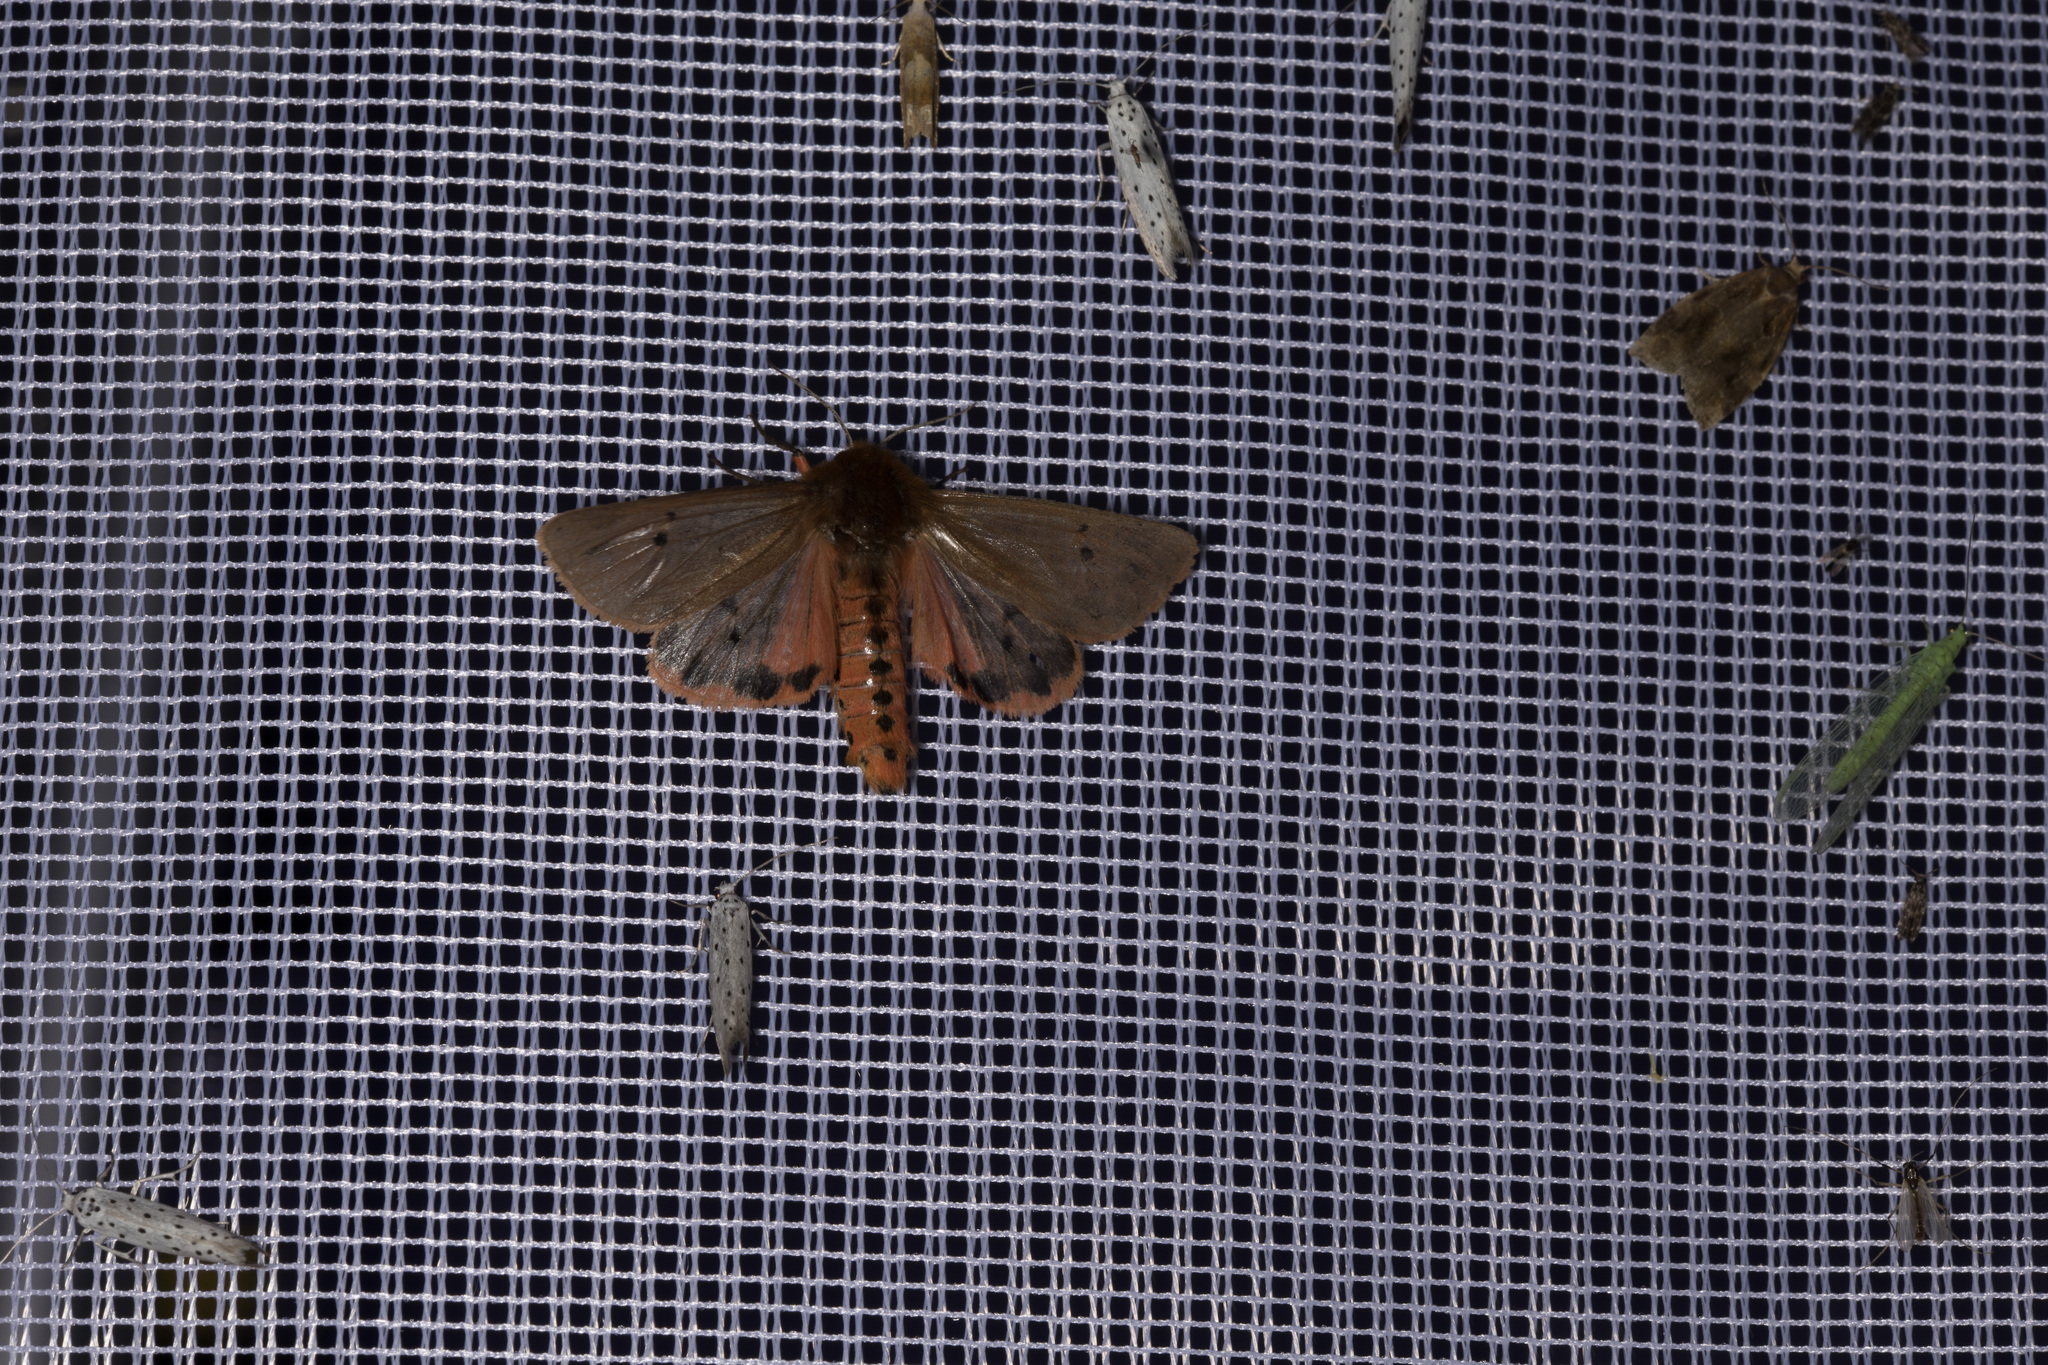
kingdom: Animalia
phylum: Arthropoda
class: Insecta
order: Lepidoptera
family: Erebidae
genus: Phragmatobia
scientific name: Phragmatobia fuliginosa
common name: Ruby tiger
